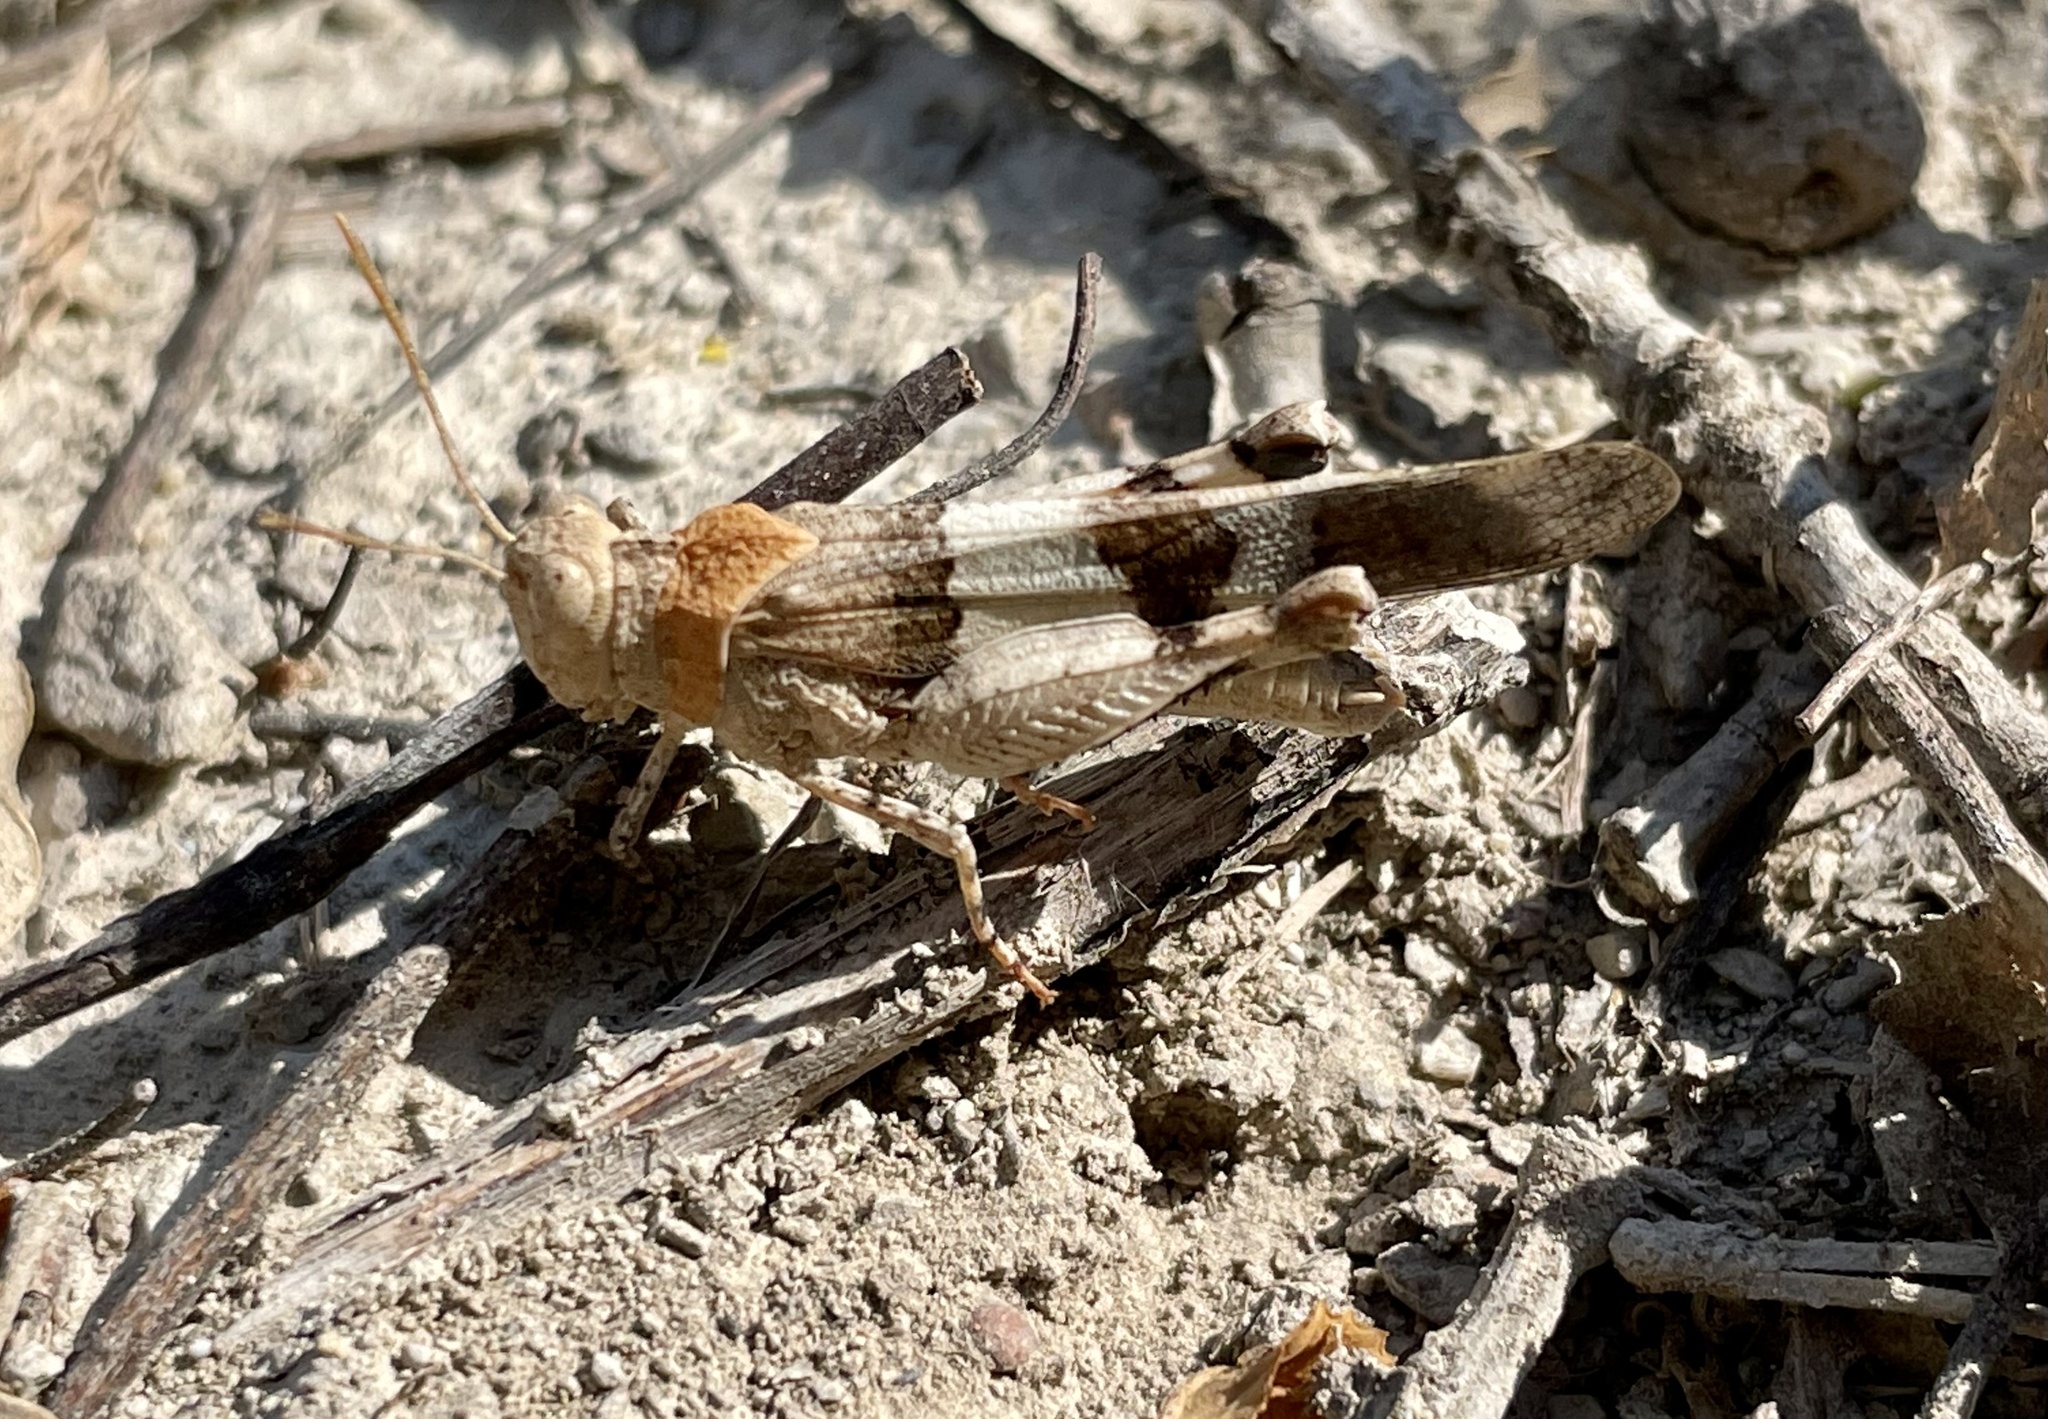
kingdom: Animalia
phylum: Arthropoda
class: Insecta
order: Orthoptera
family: Acrididae
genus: Oedipoda
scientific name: Oedipoda caerulescens
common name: Blue-winged grasshopper
